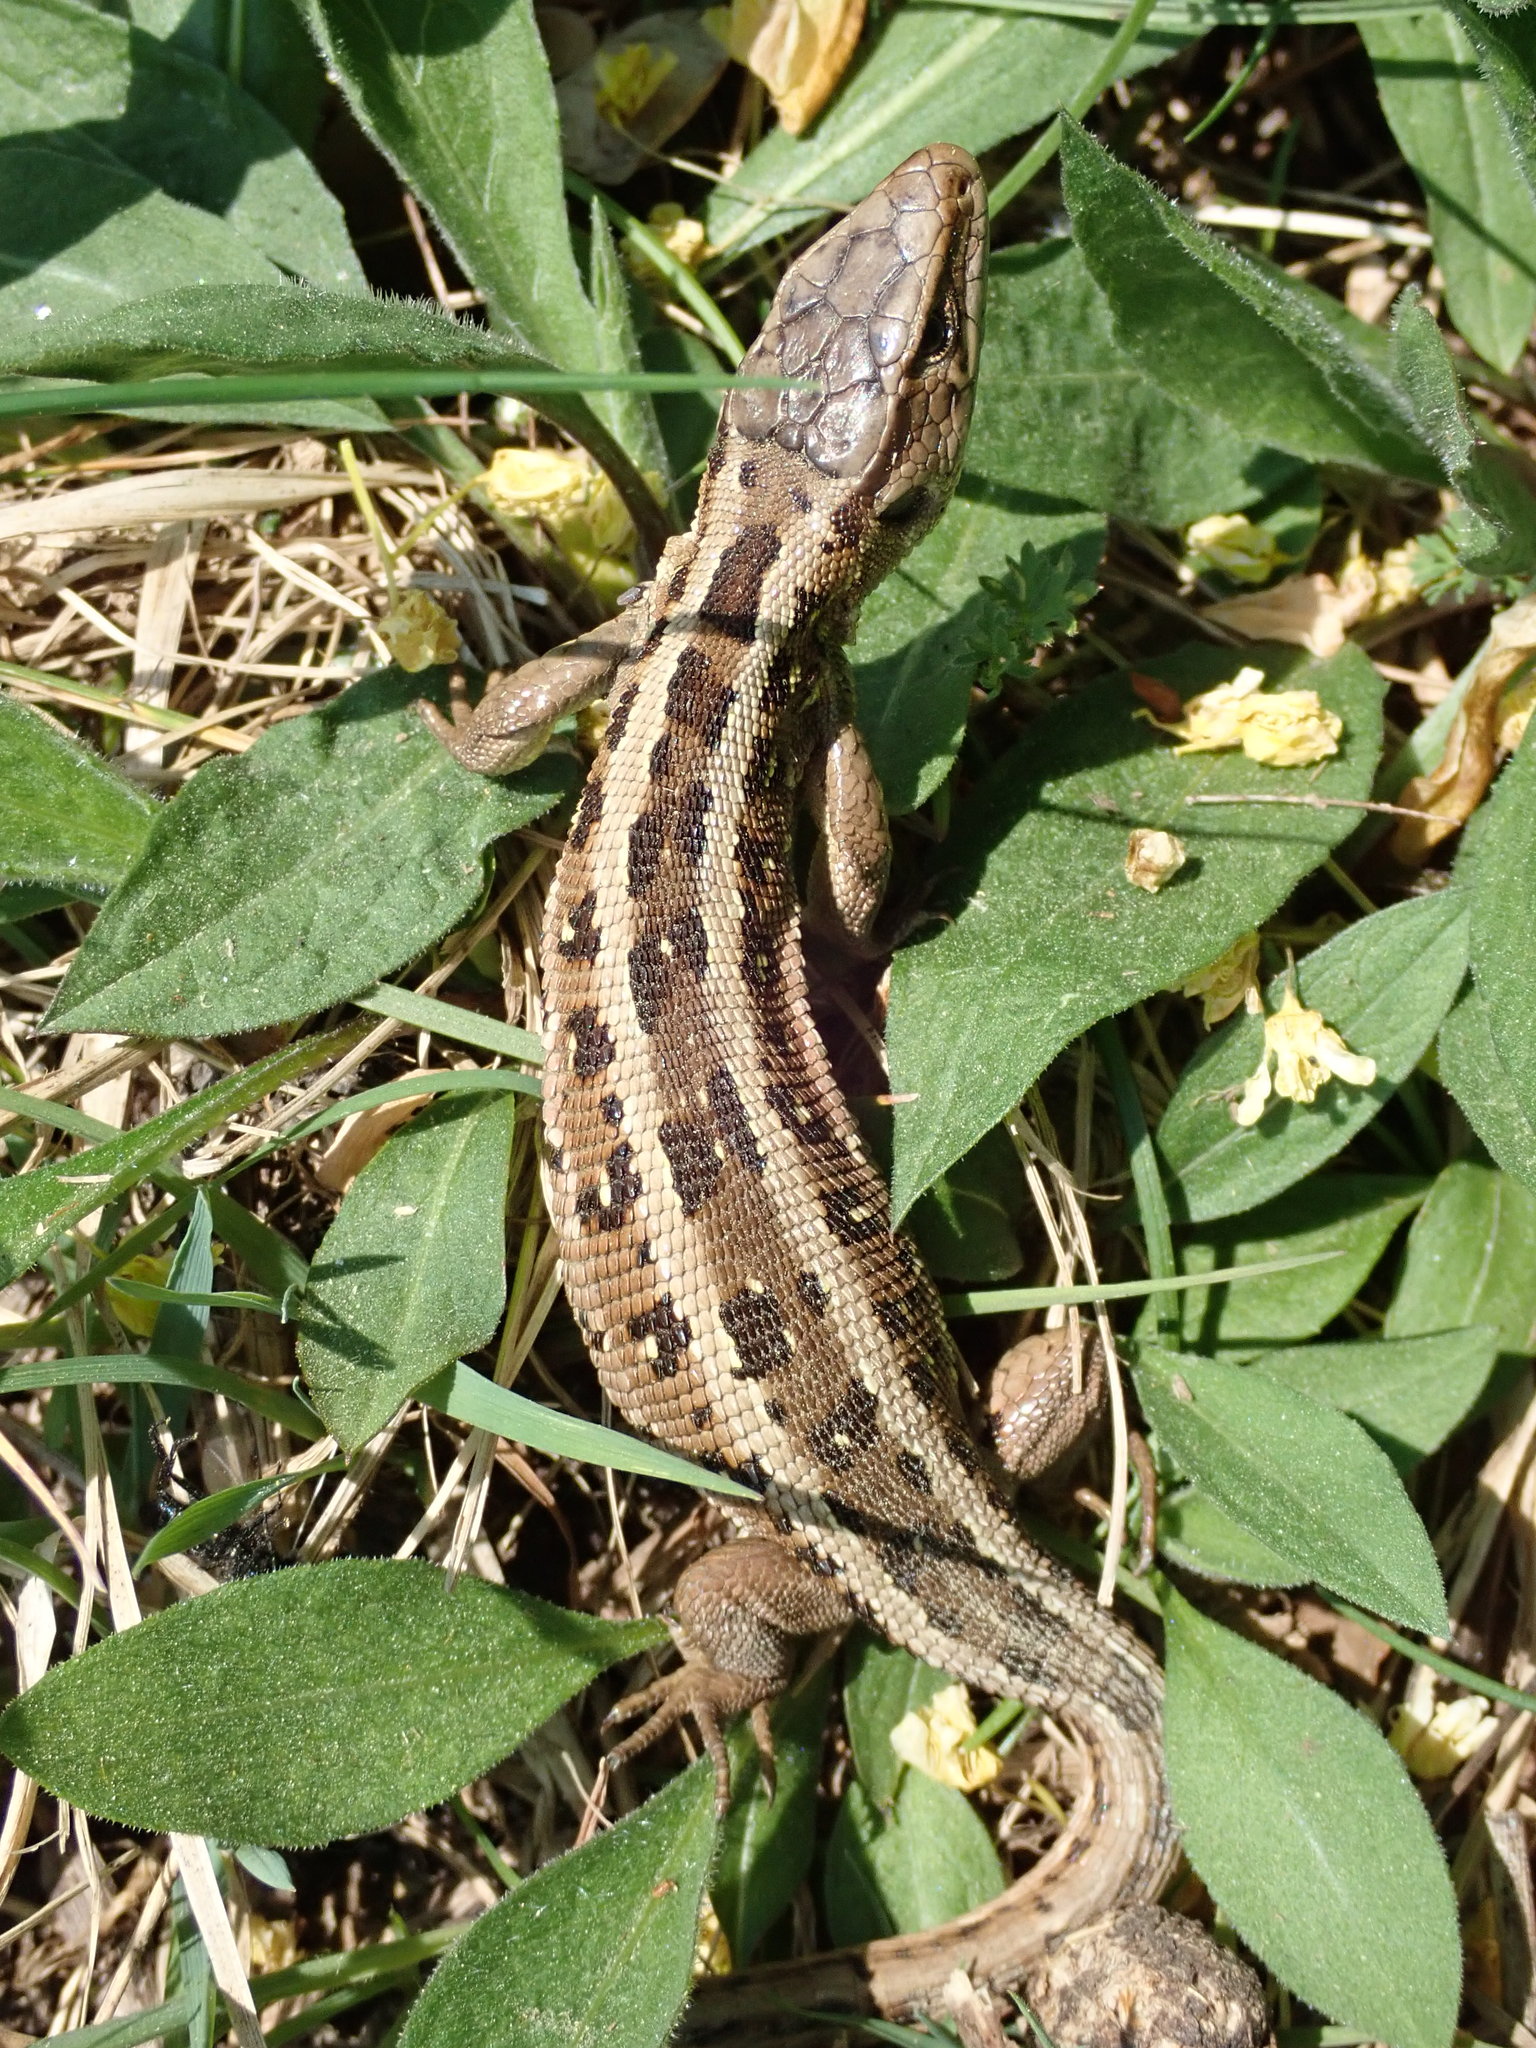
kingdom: Animalia
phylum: Chordata
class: Squamata
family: Lacertidae
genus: Lacerta
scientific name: Lacerta agilis
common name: Sand lizard
